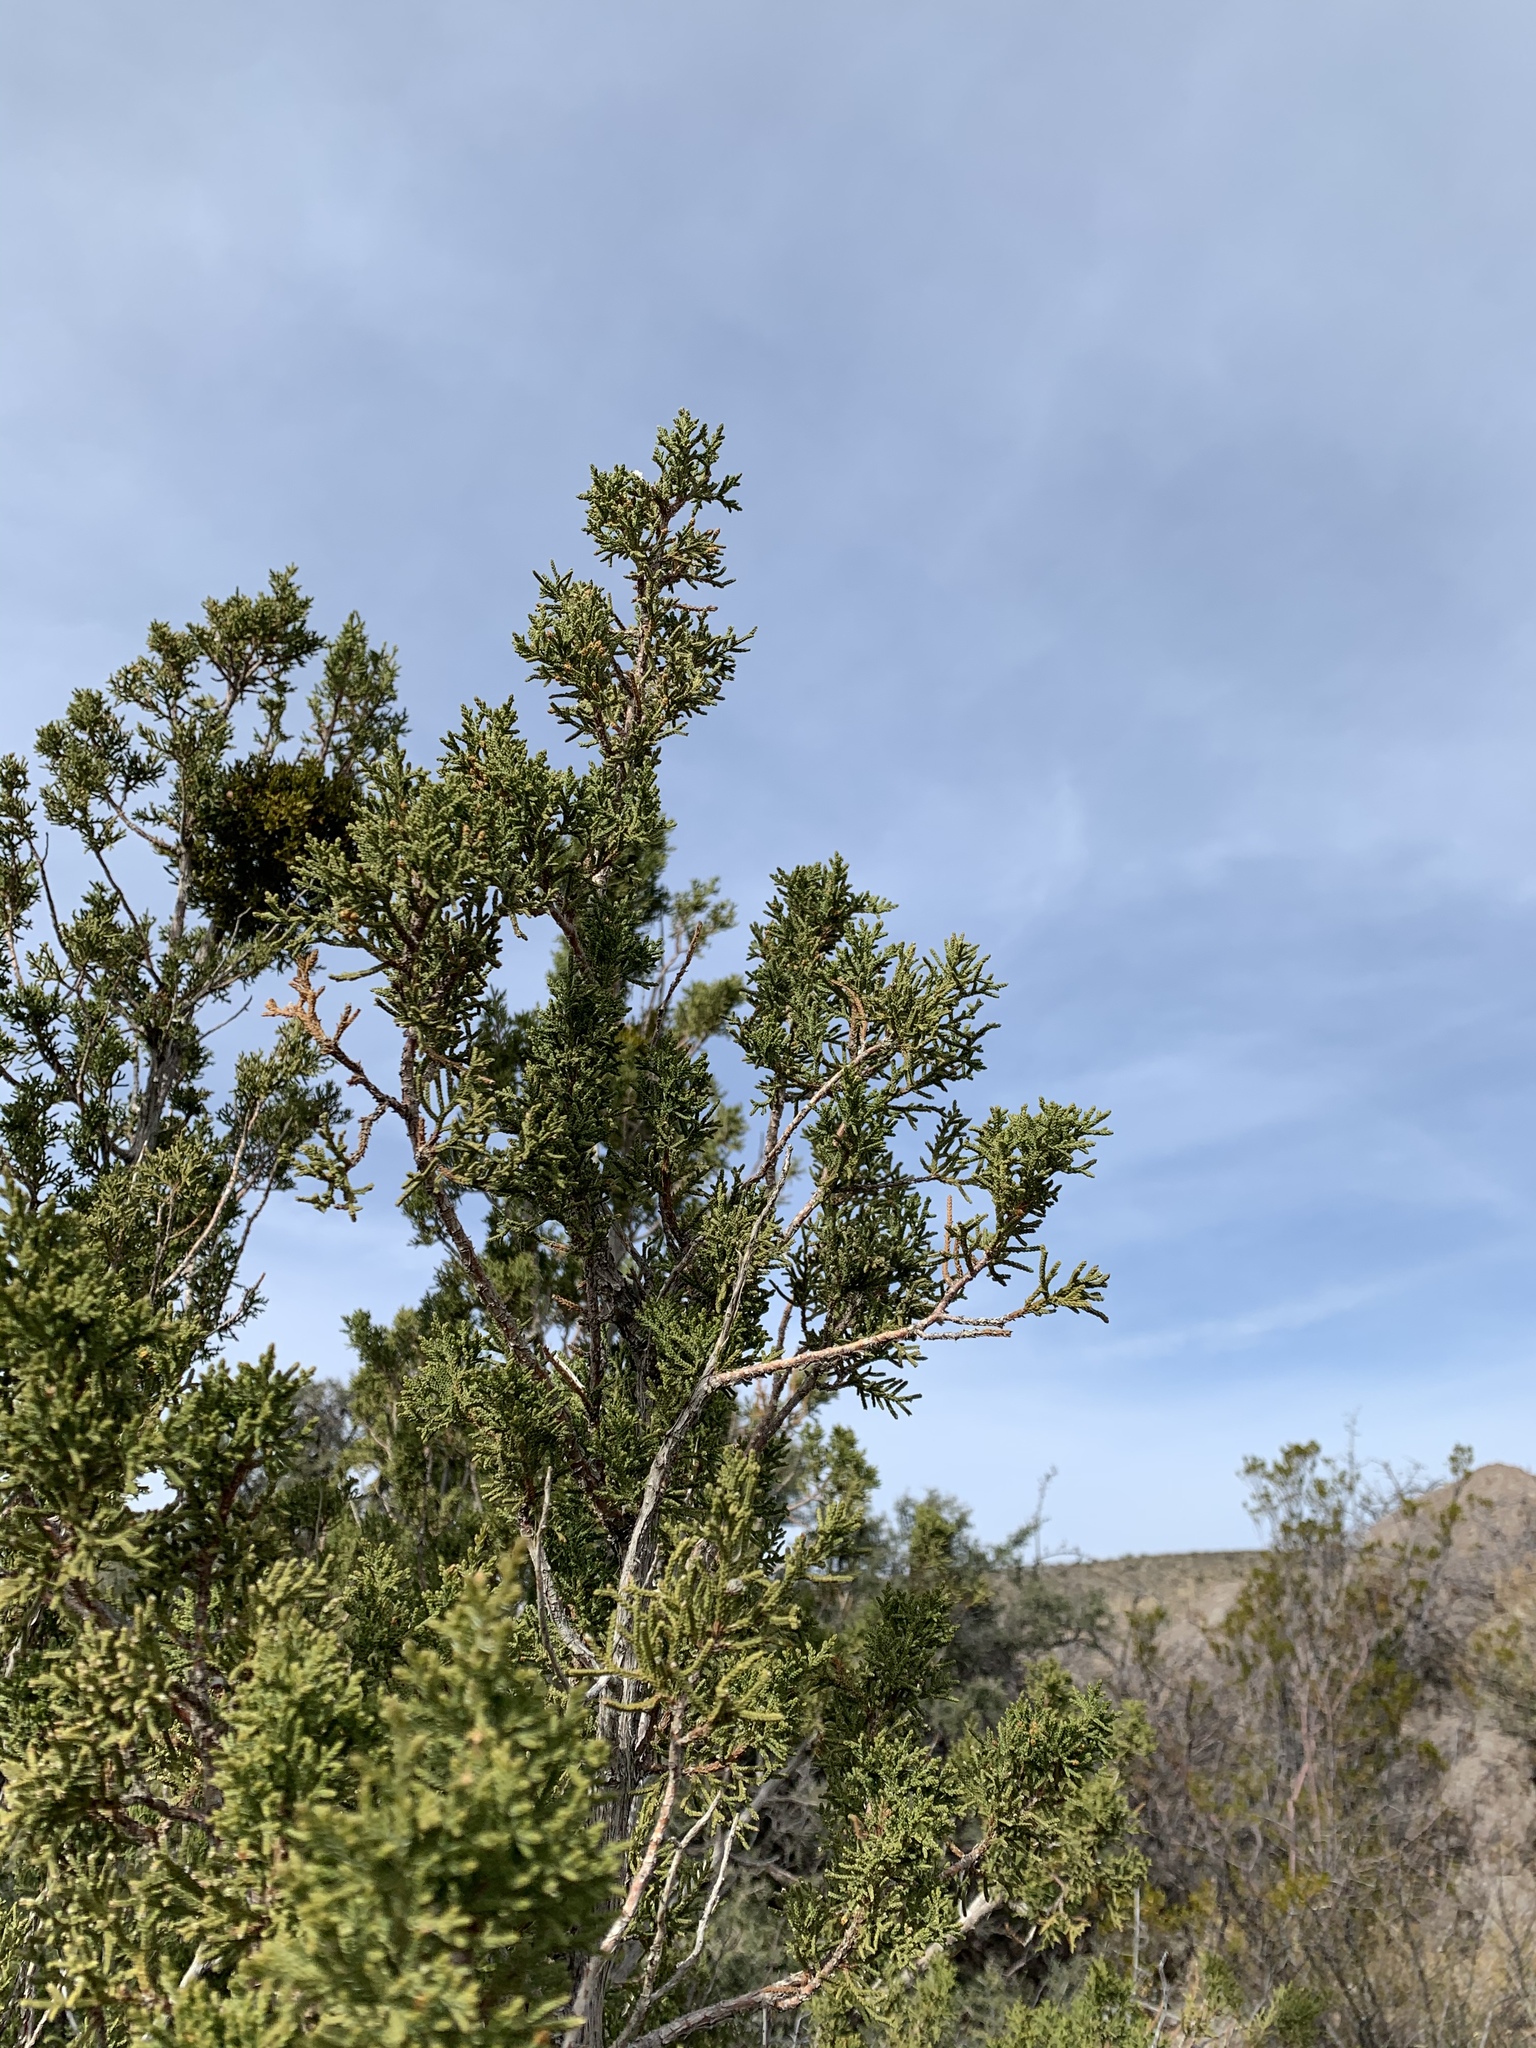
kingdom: Plantae
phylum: Tracheophyta
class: Pinopsida
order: Pinales
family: Cupressaceae
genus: Juniperus
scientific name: Juniperus monosperma
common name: One-seed juniper
